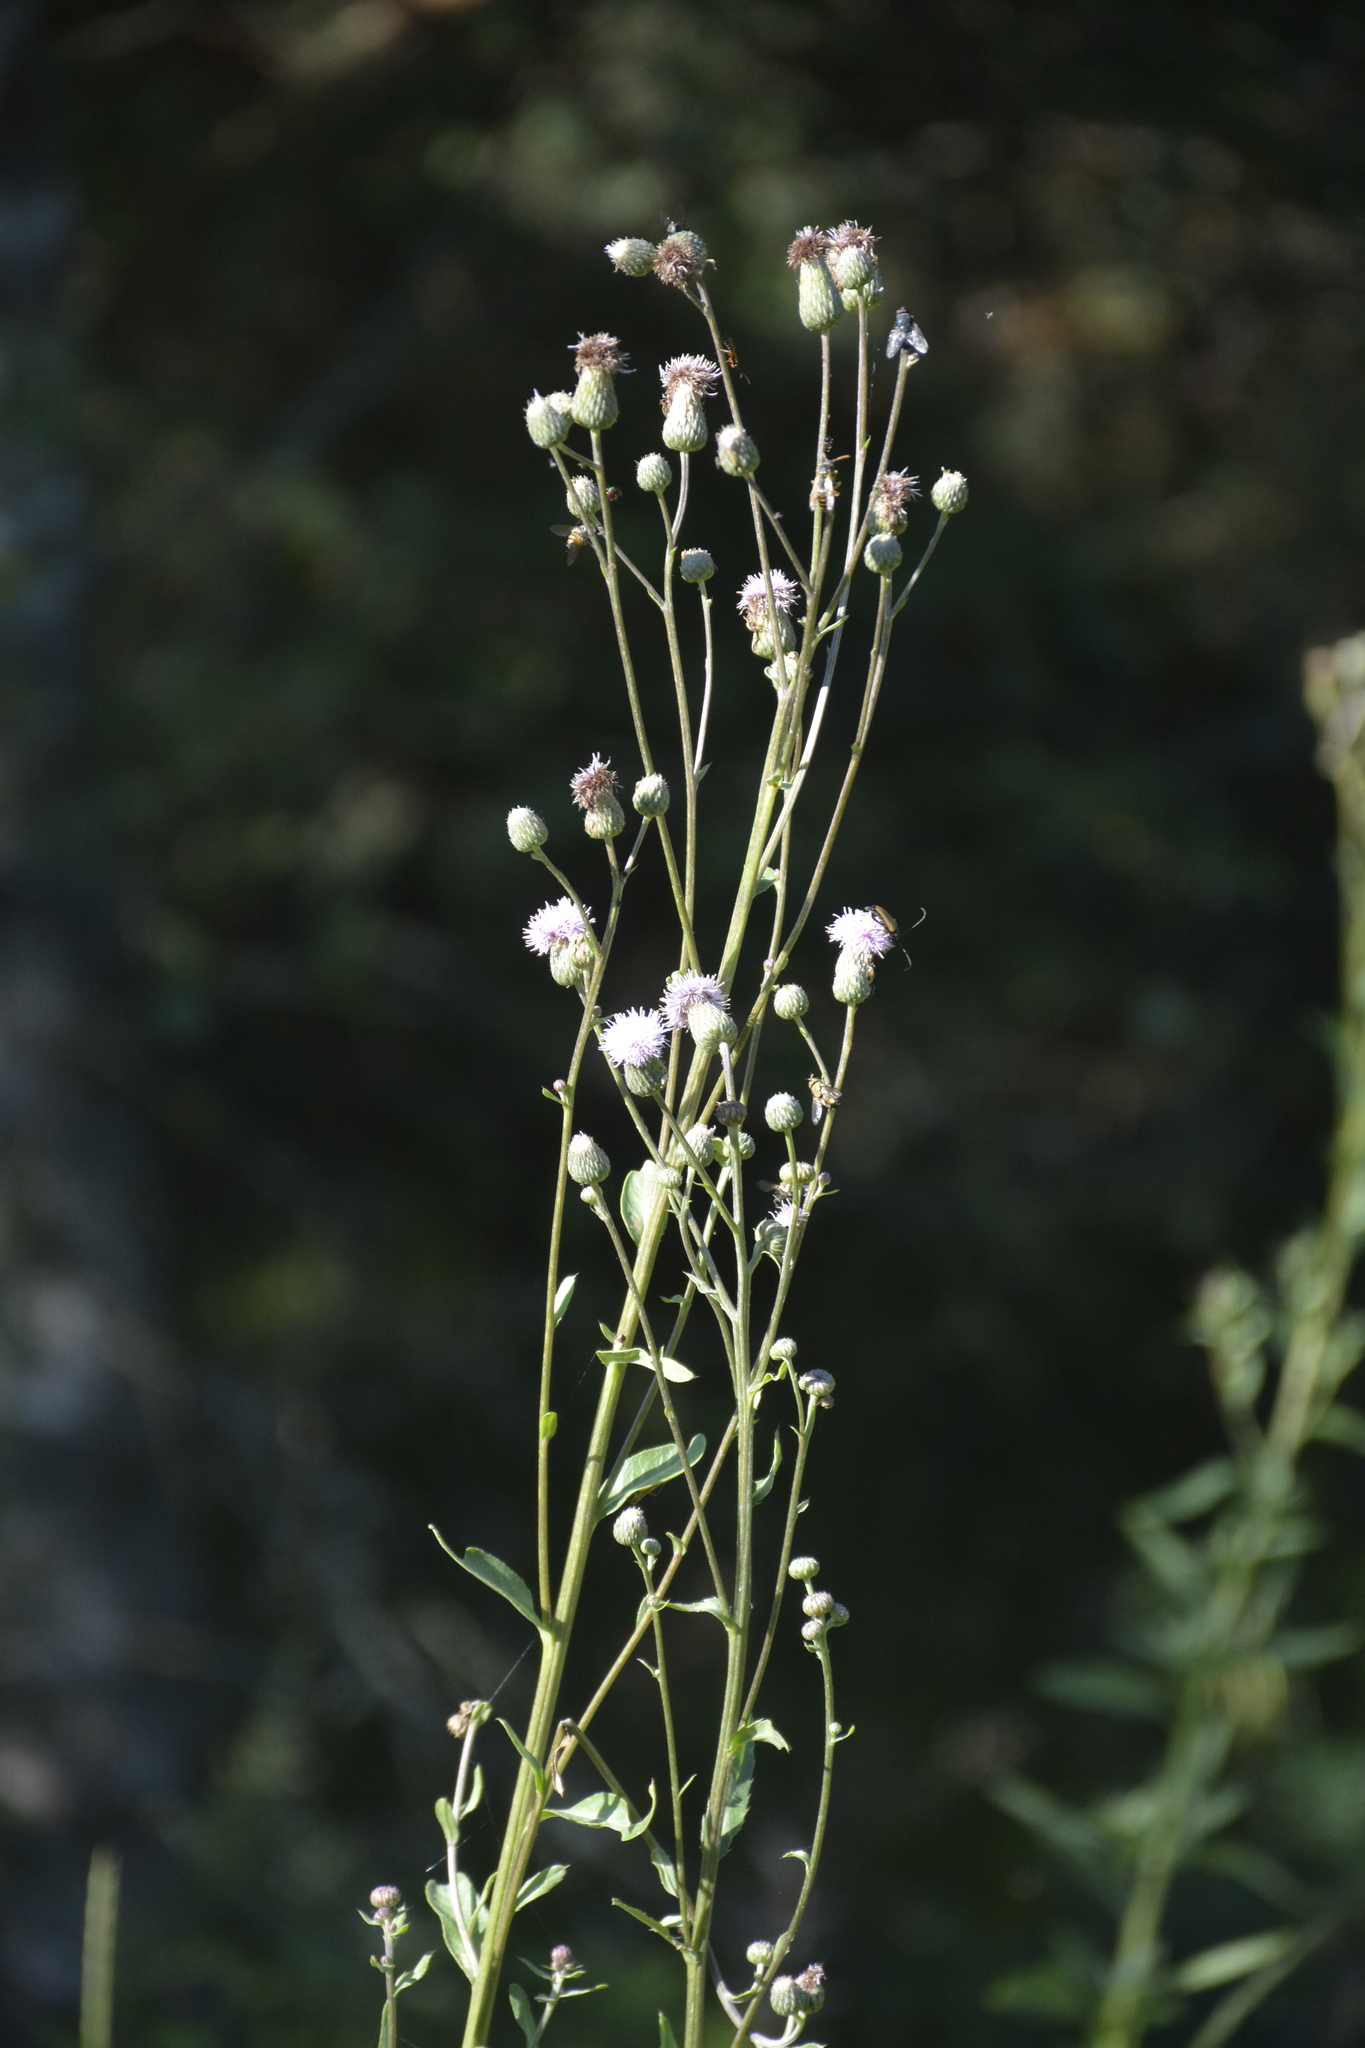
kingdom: Plantae
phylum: Tracheophyta
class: Magnoliopsida
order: Asterales
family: Asteraceae
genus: Cirsium
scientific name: Cirsium arvense
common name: Creeping thistle
